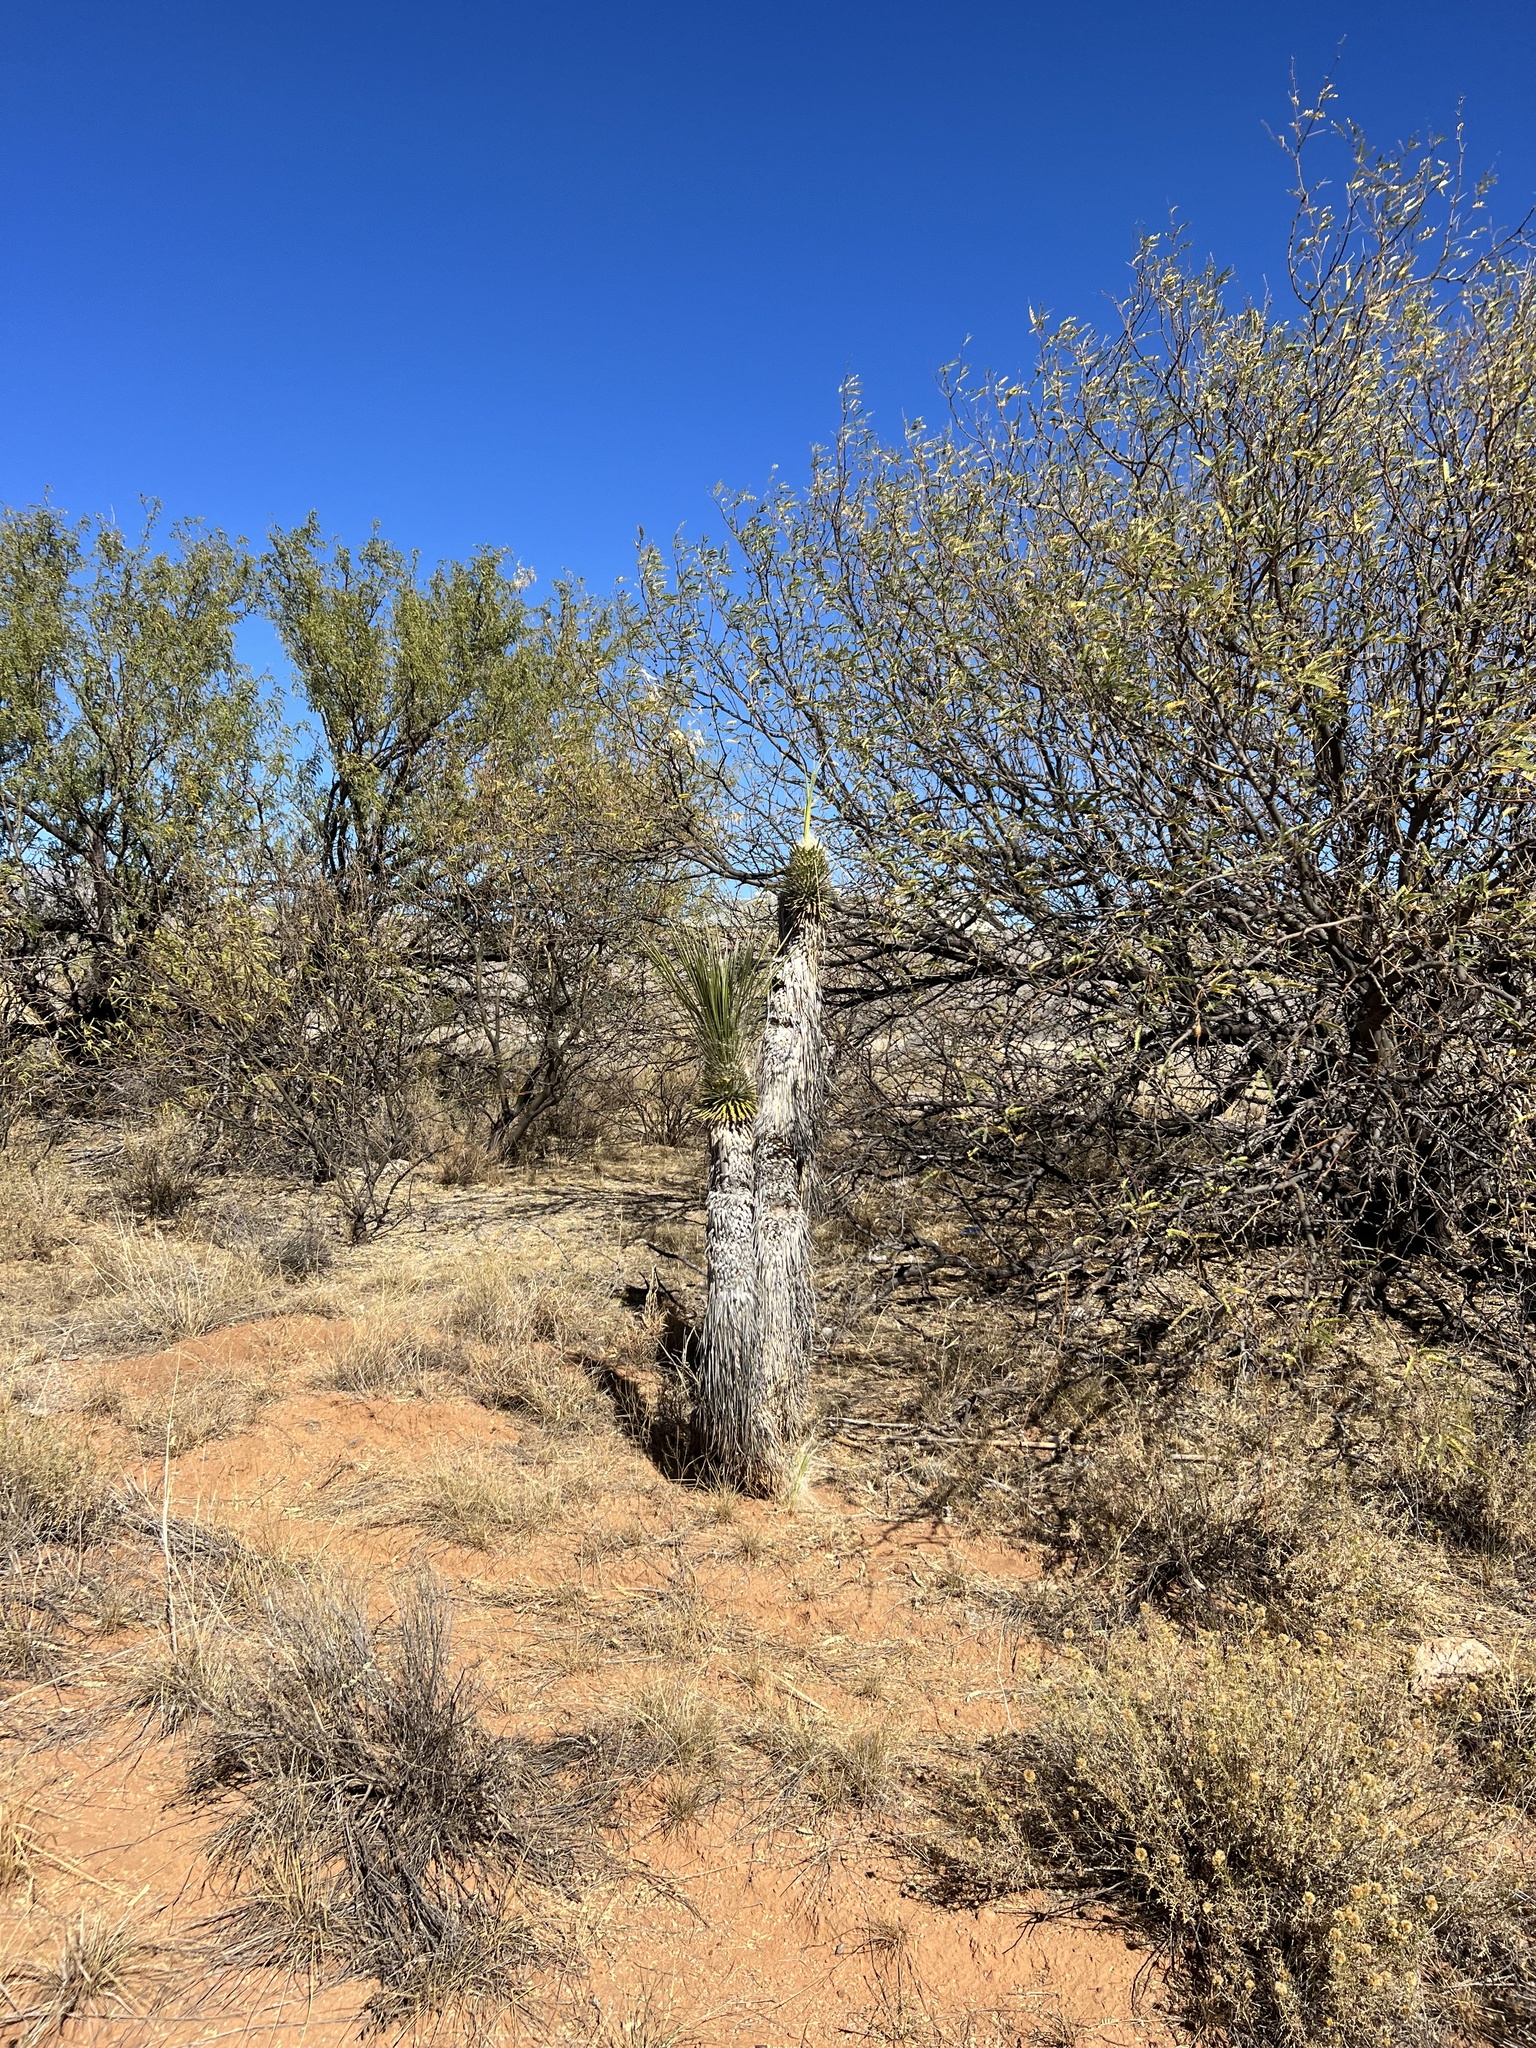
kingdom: Plantae
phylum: Tracheophyta
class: Liliopsida
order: Asparagales
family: Asparagaceae
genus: Yucca
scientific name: Yucca elata
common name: Palmella
